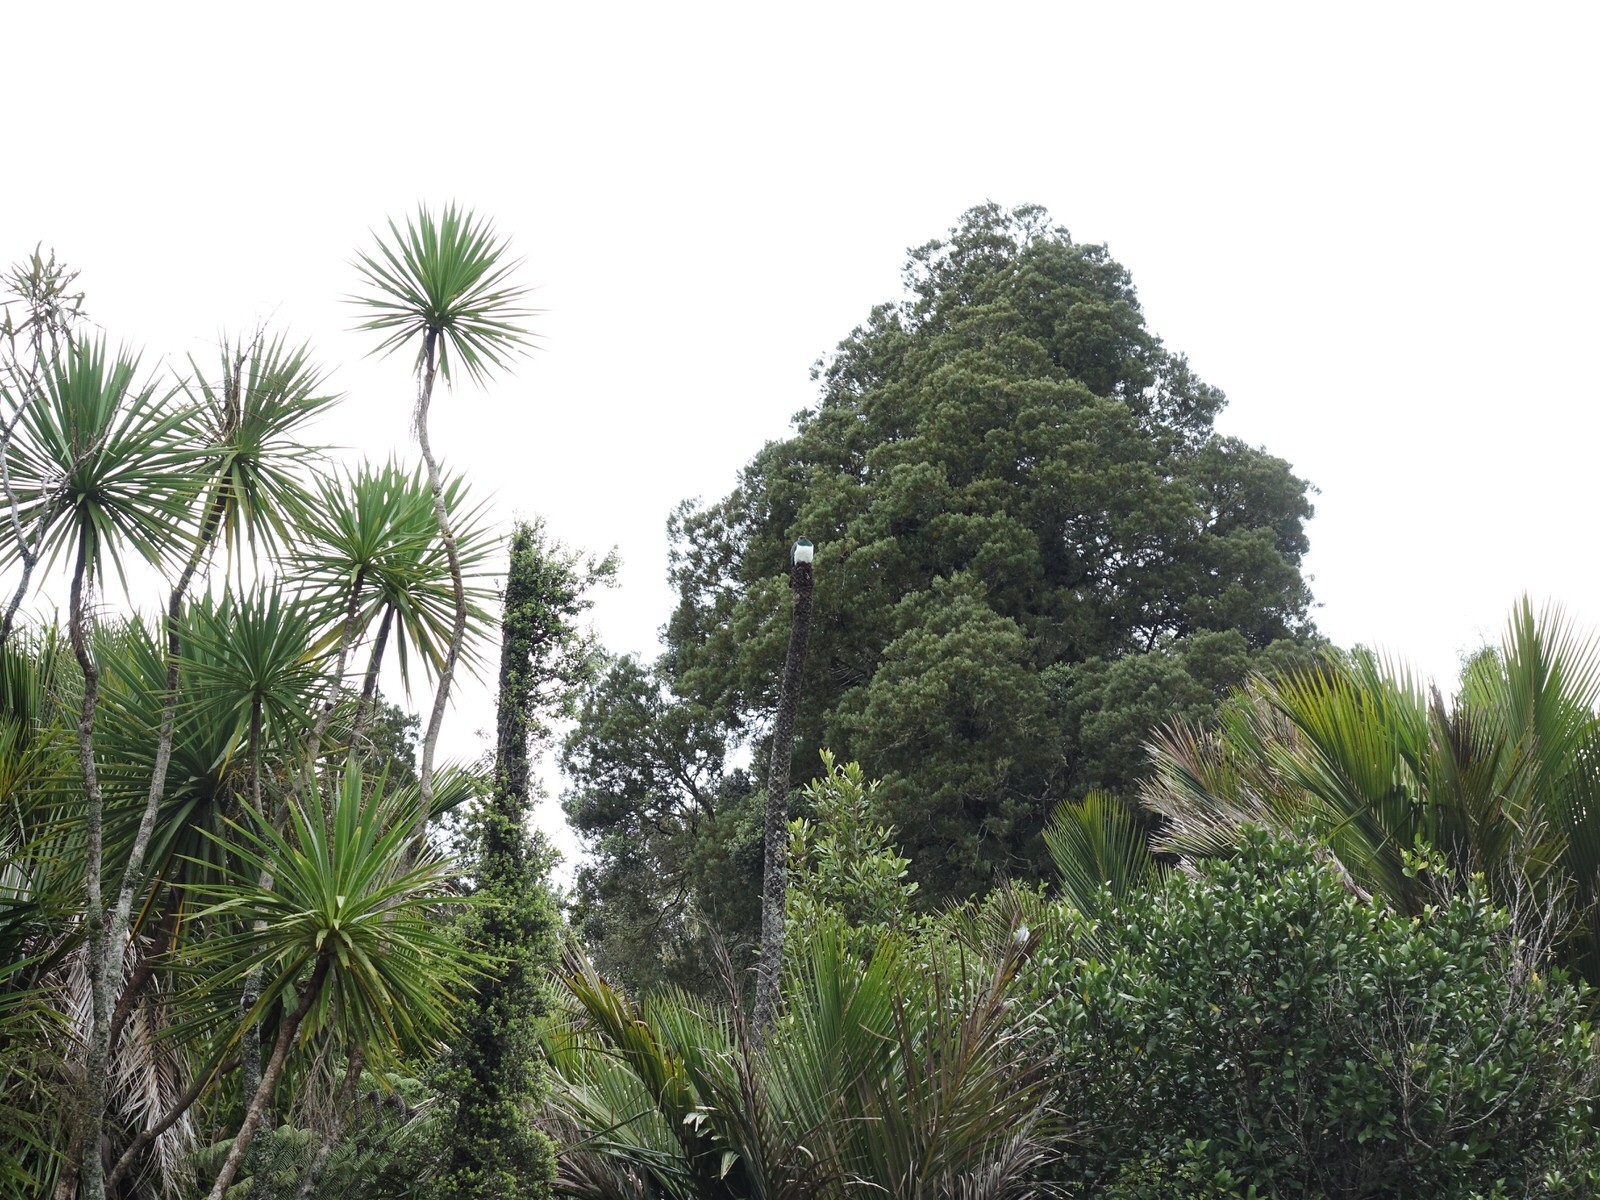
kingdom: Animalia
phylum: Chordata
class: Aves
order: Columbiformes
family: Columbidae
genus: Hemiphaga
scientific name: Hemiphaga novaeseelandiae
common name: New zealand pigeon
